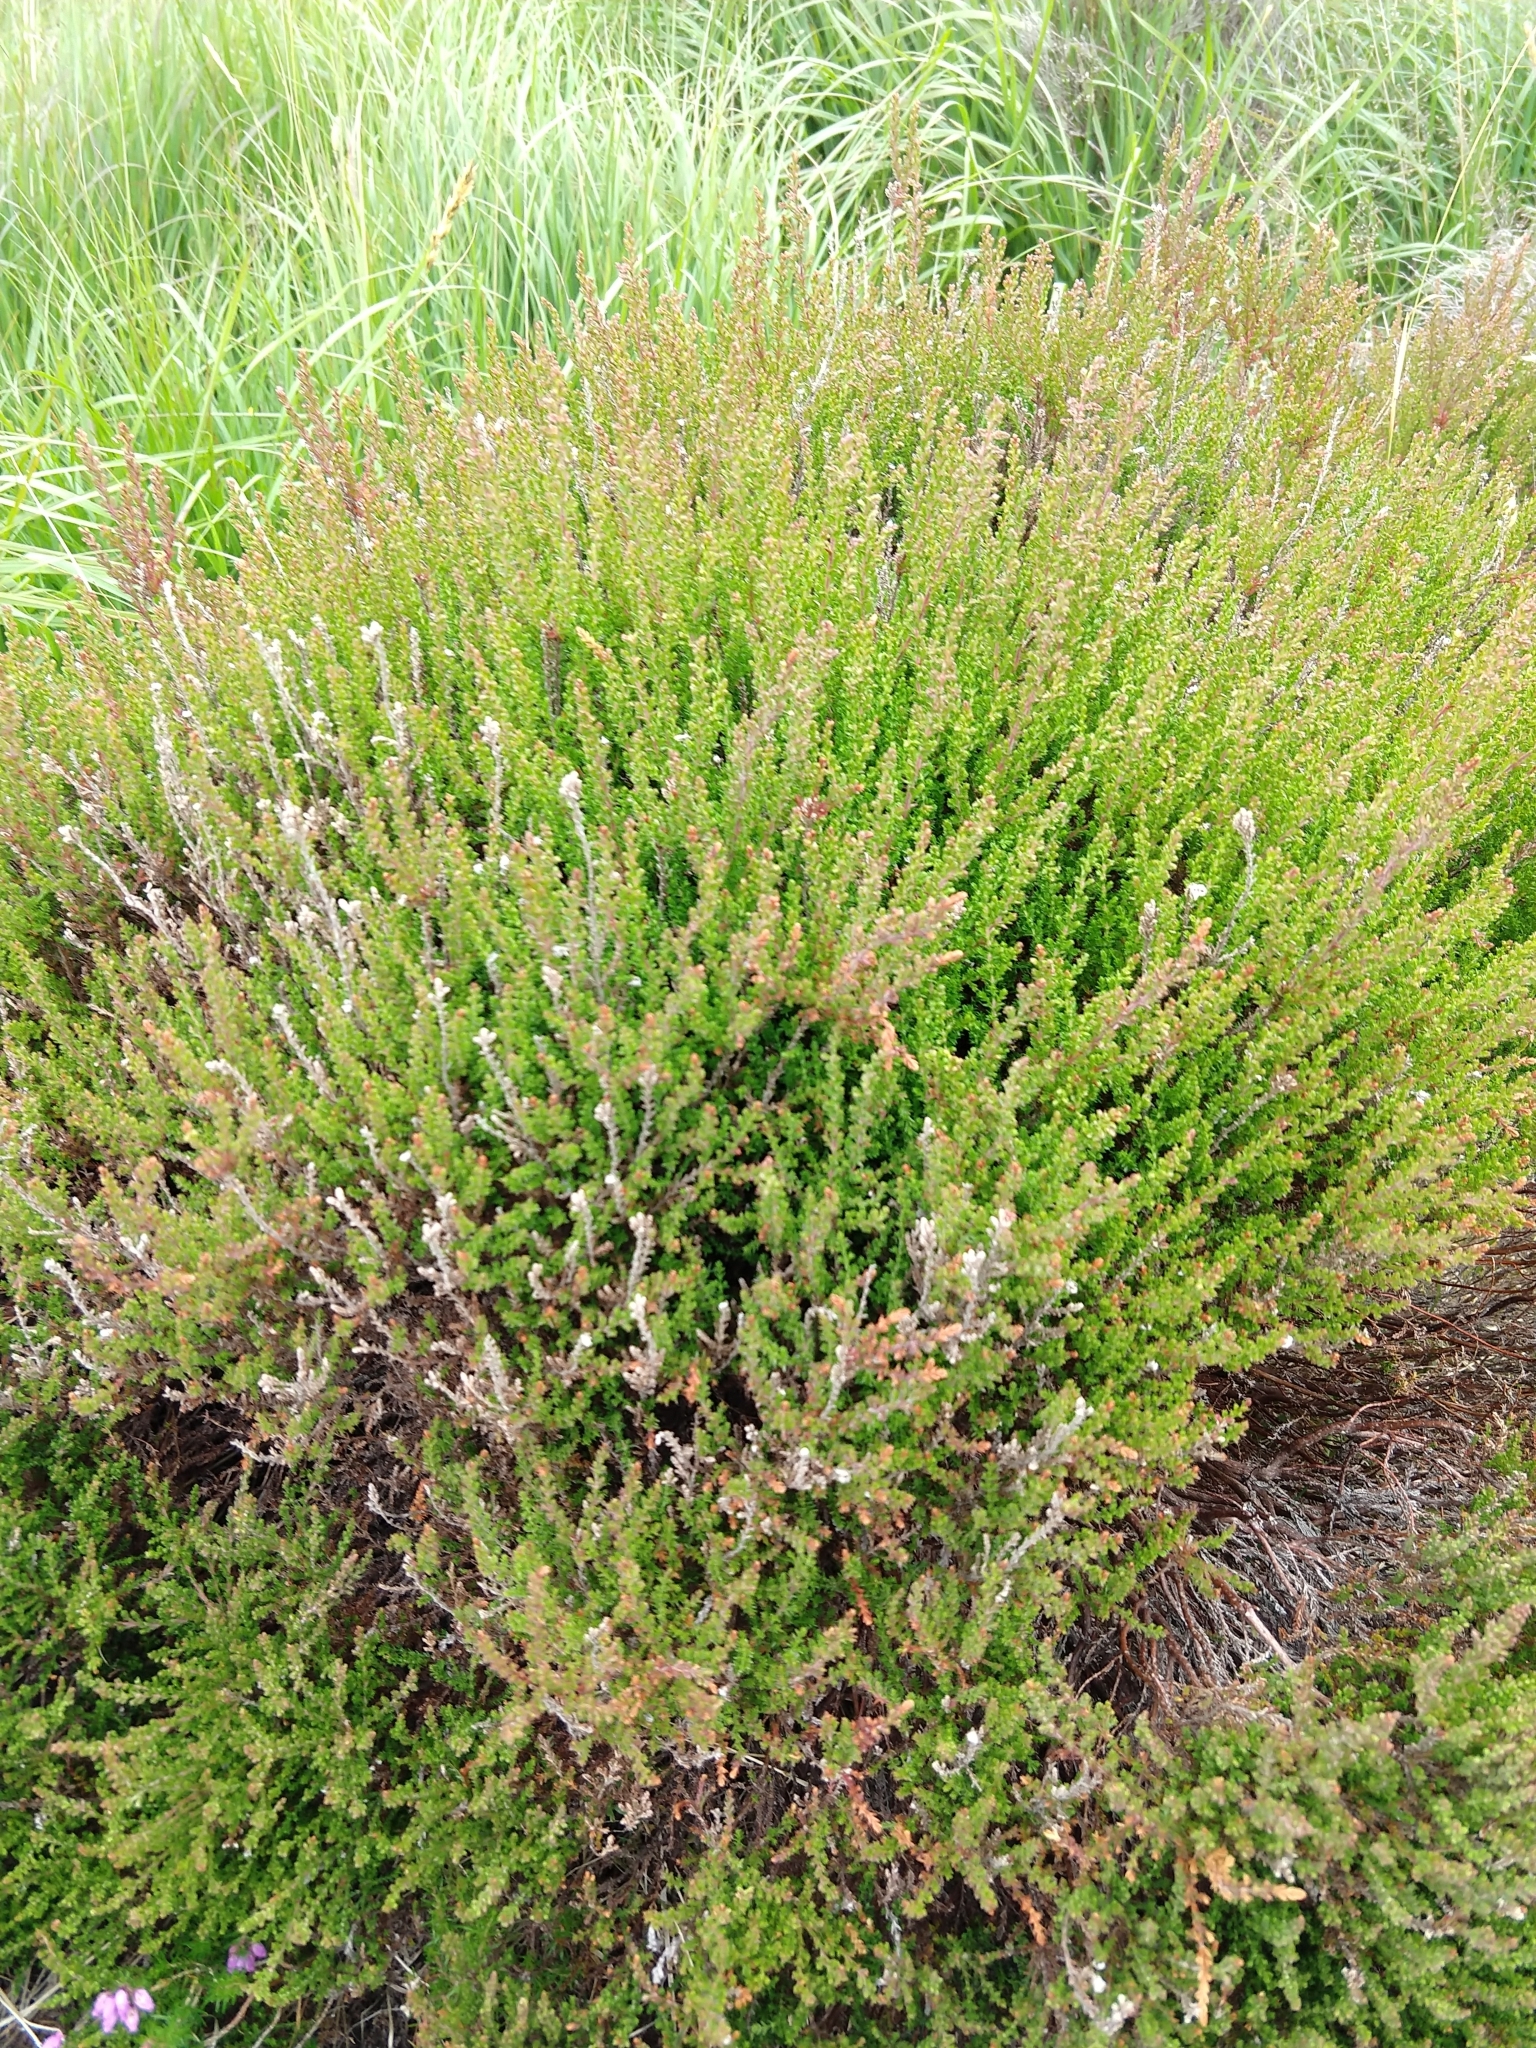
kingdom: Plantae
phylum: Tracheophyta
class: Magnoliopsida
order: Ericales
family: Ericaceae
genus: Calluna
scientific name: Calluna vulgaris
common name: Heather
